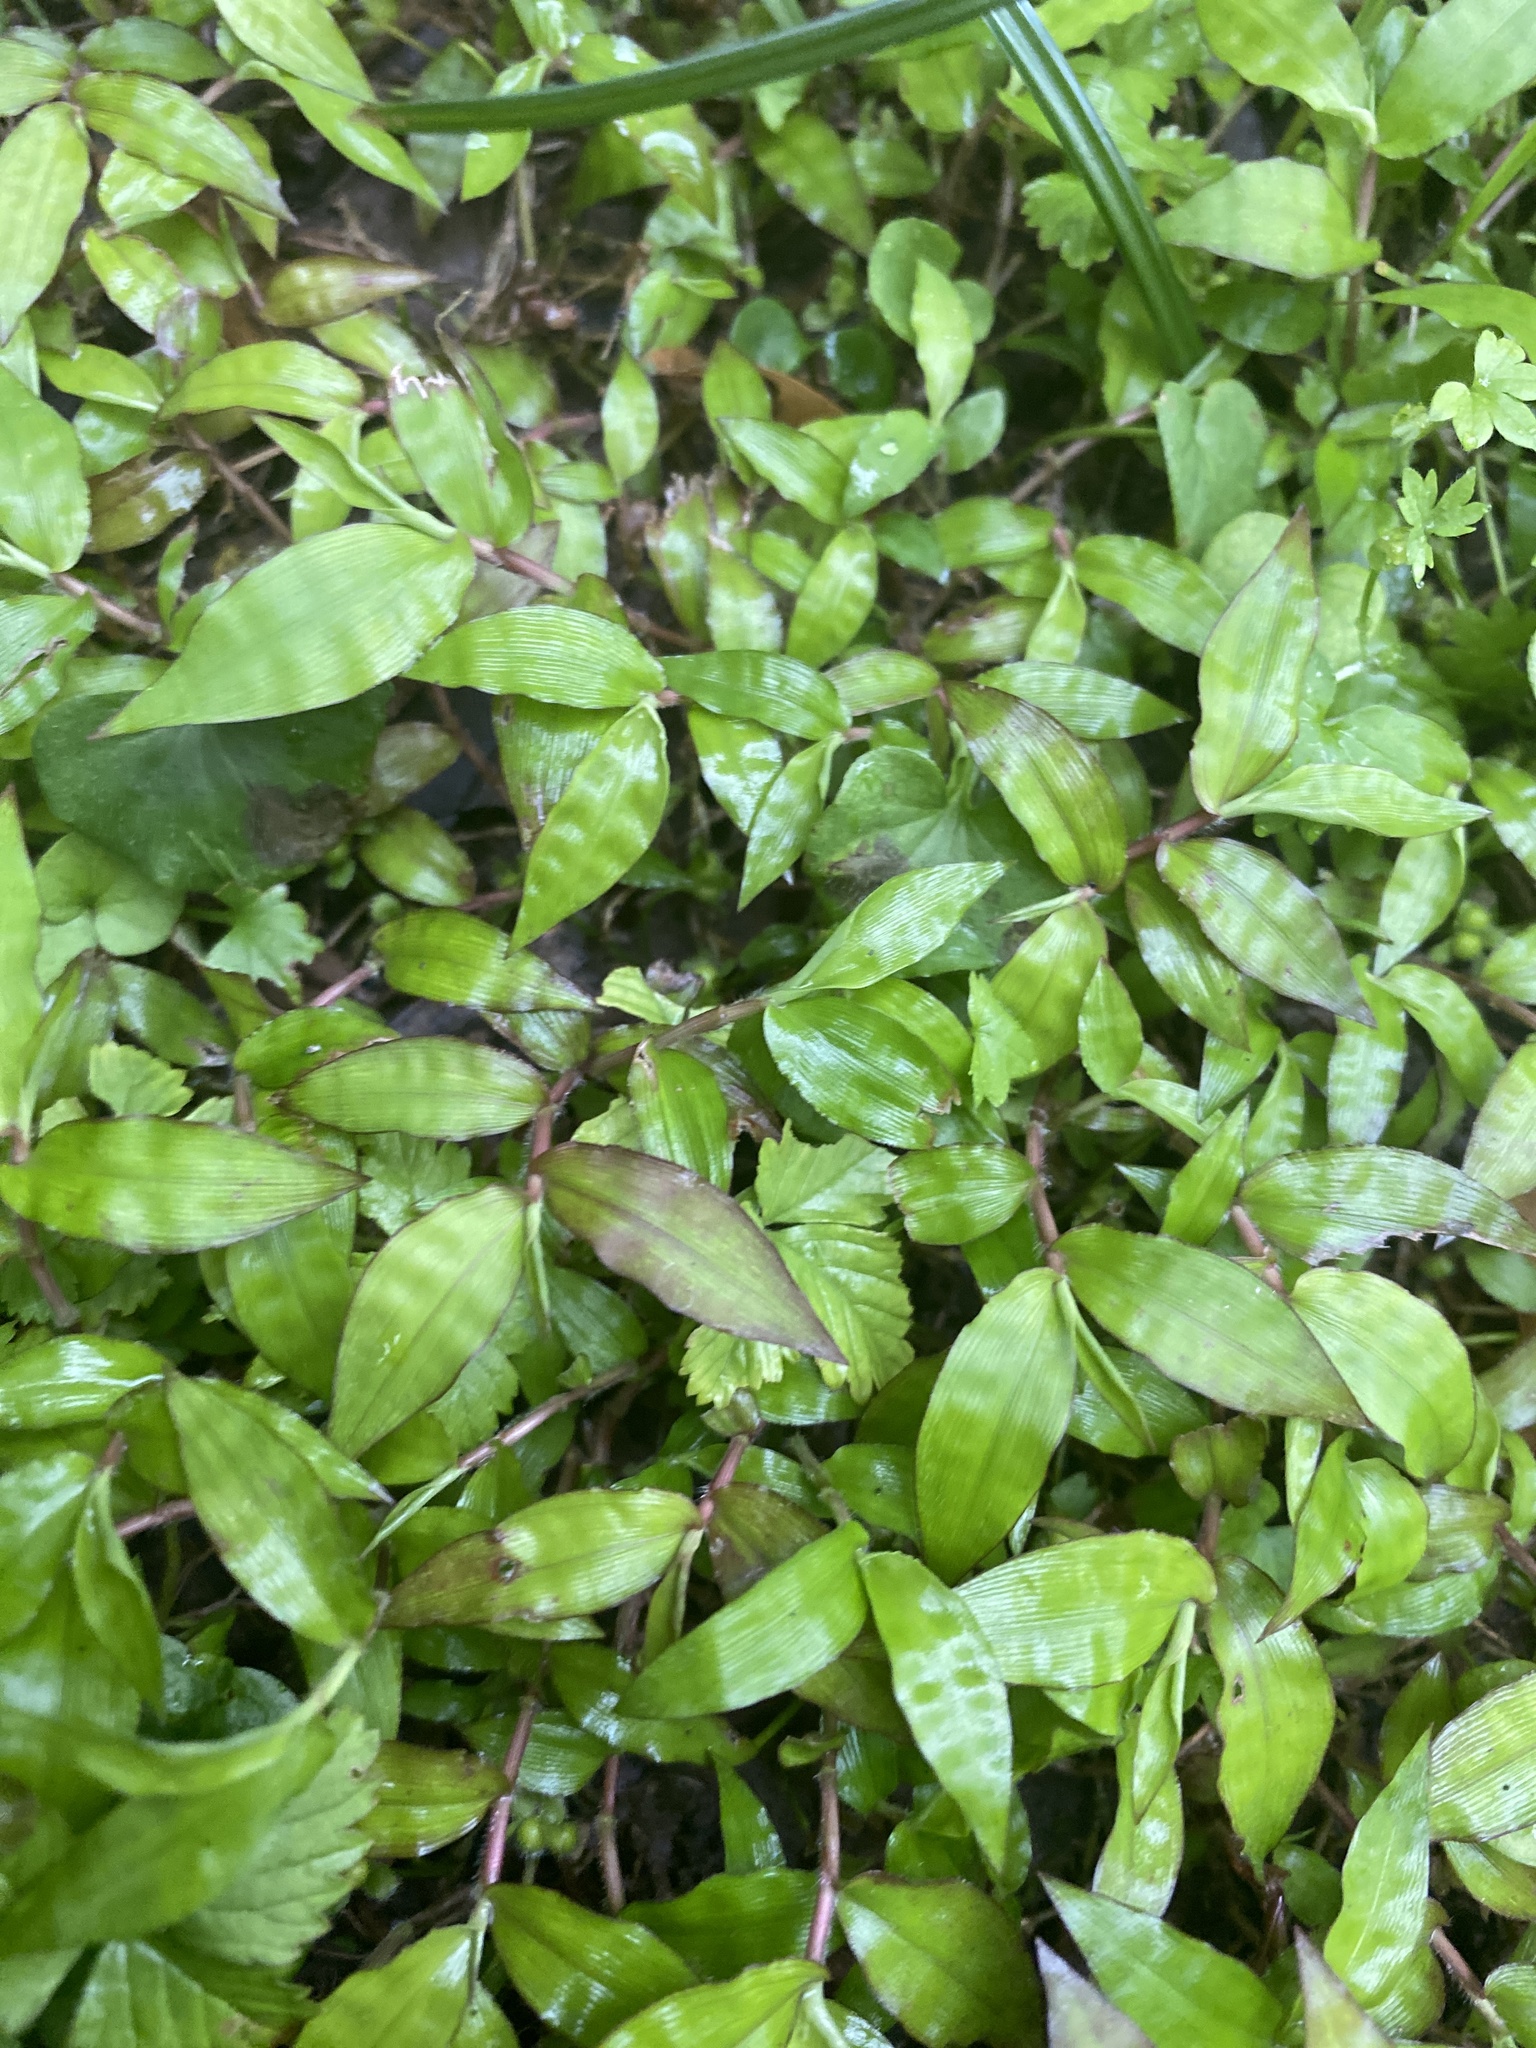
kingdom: Plantae
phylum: Tracheophyta
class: Liliopsida
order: Poales
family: Poaceae
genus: Oplismenus
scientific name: Oplismenus hirtellus
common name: Basketgrass
